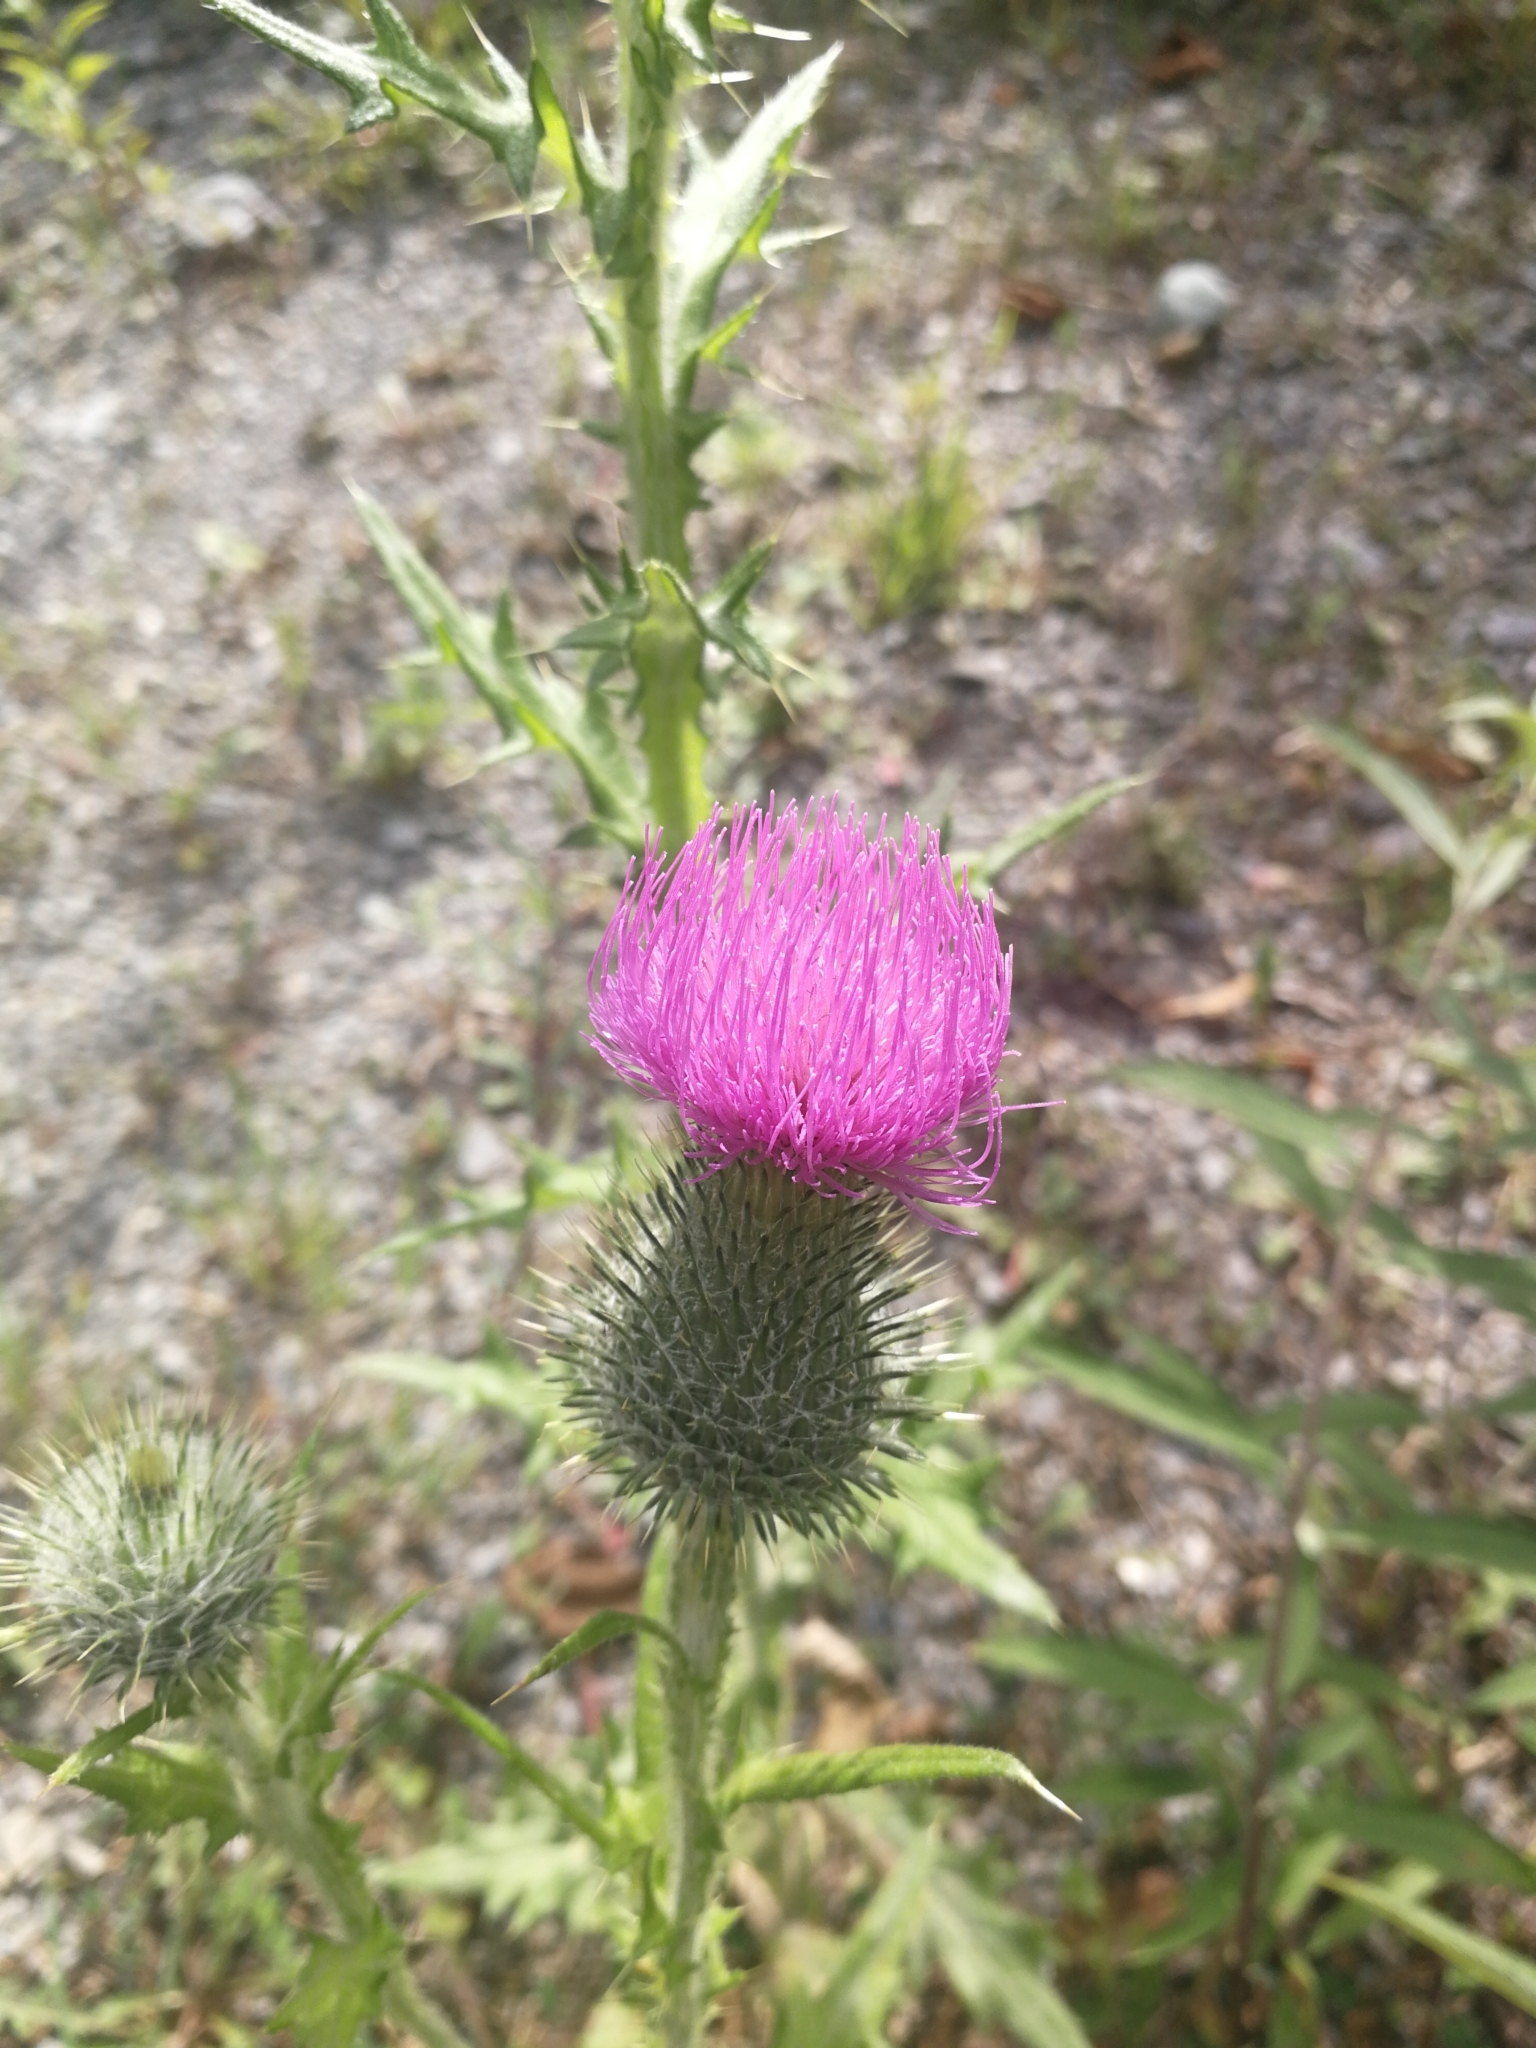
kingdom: Plantae
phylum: Tracheophyta
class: Magnoliopsida
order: Asterales
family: Asteraceae
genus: Cirsium
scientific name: Cirsium vulgare
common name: Bull thistle
